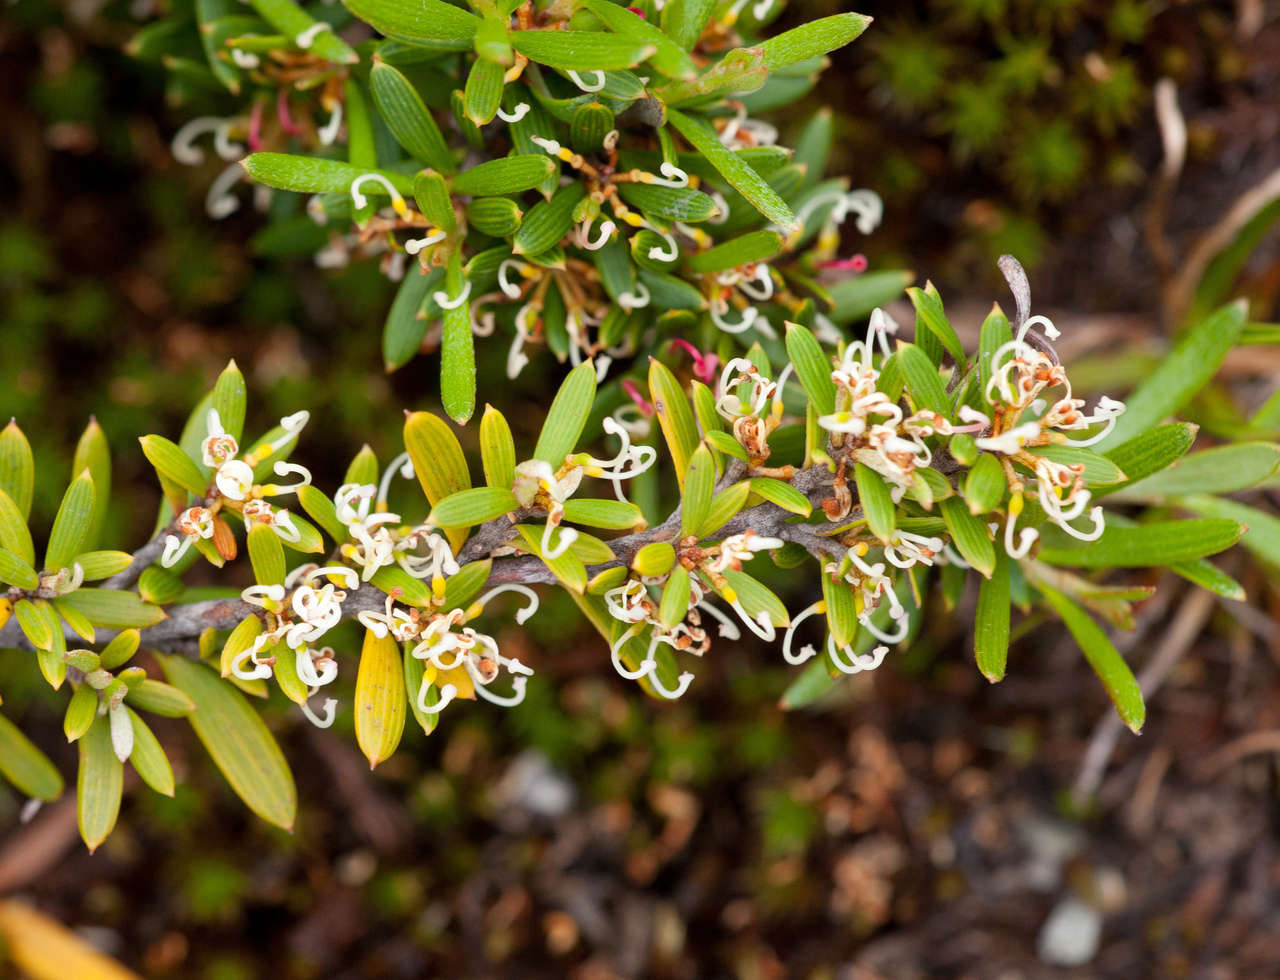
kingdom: Plantae
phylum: Tracheophyta
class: Magnoliopsida
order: Proteales
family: Proteaceae
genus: Grevillea
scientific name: Grevillea australis
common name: Alpine grevillea
